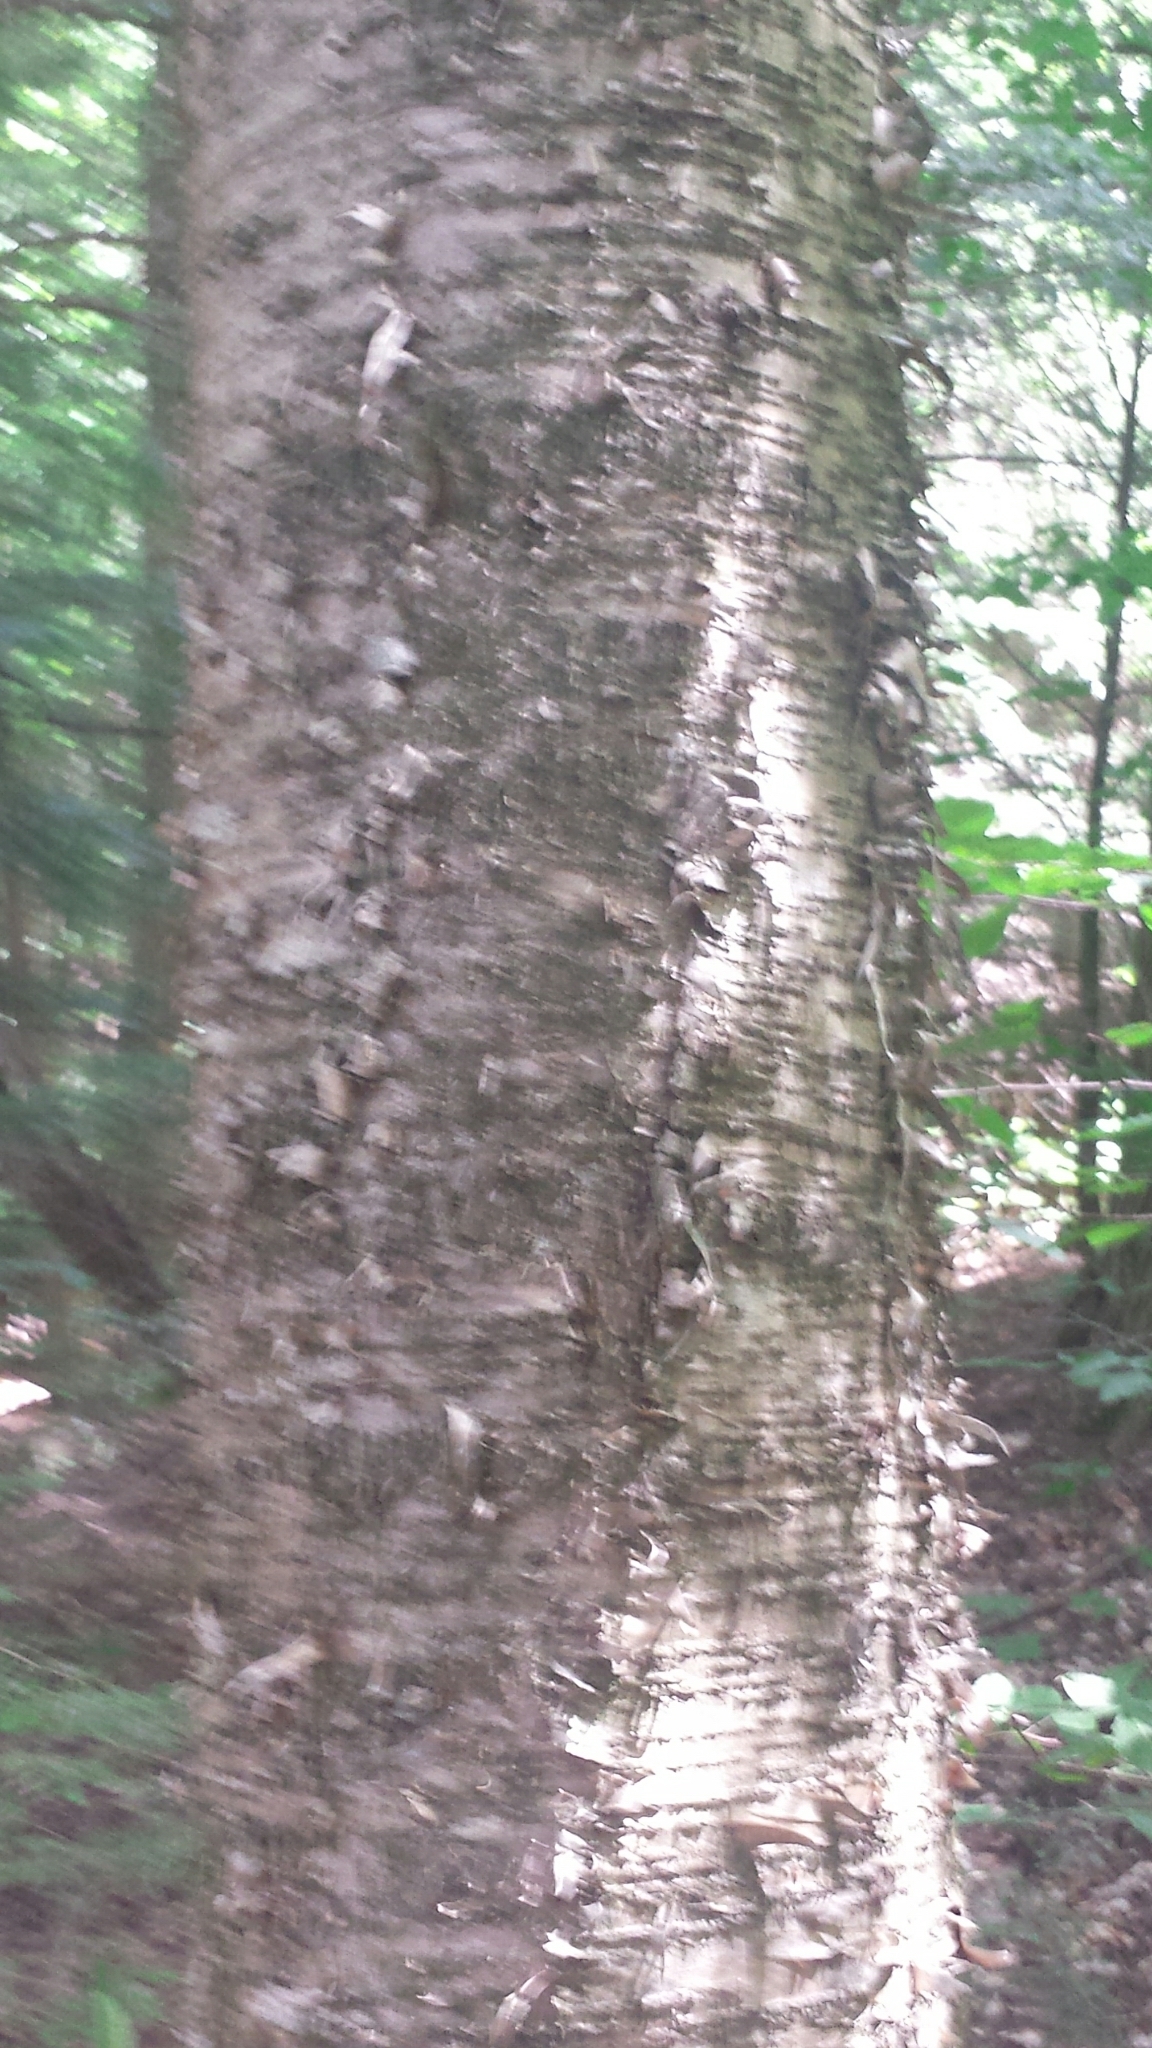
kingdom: Plantae
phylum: Tracheophyta
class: Magnoliopsida
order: Fagales
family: Betulaceae
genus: Betula
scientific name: Betula alleghaniensis
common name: Yellow birch
